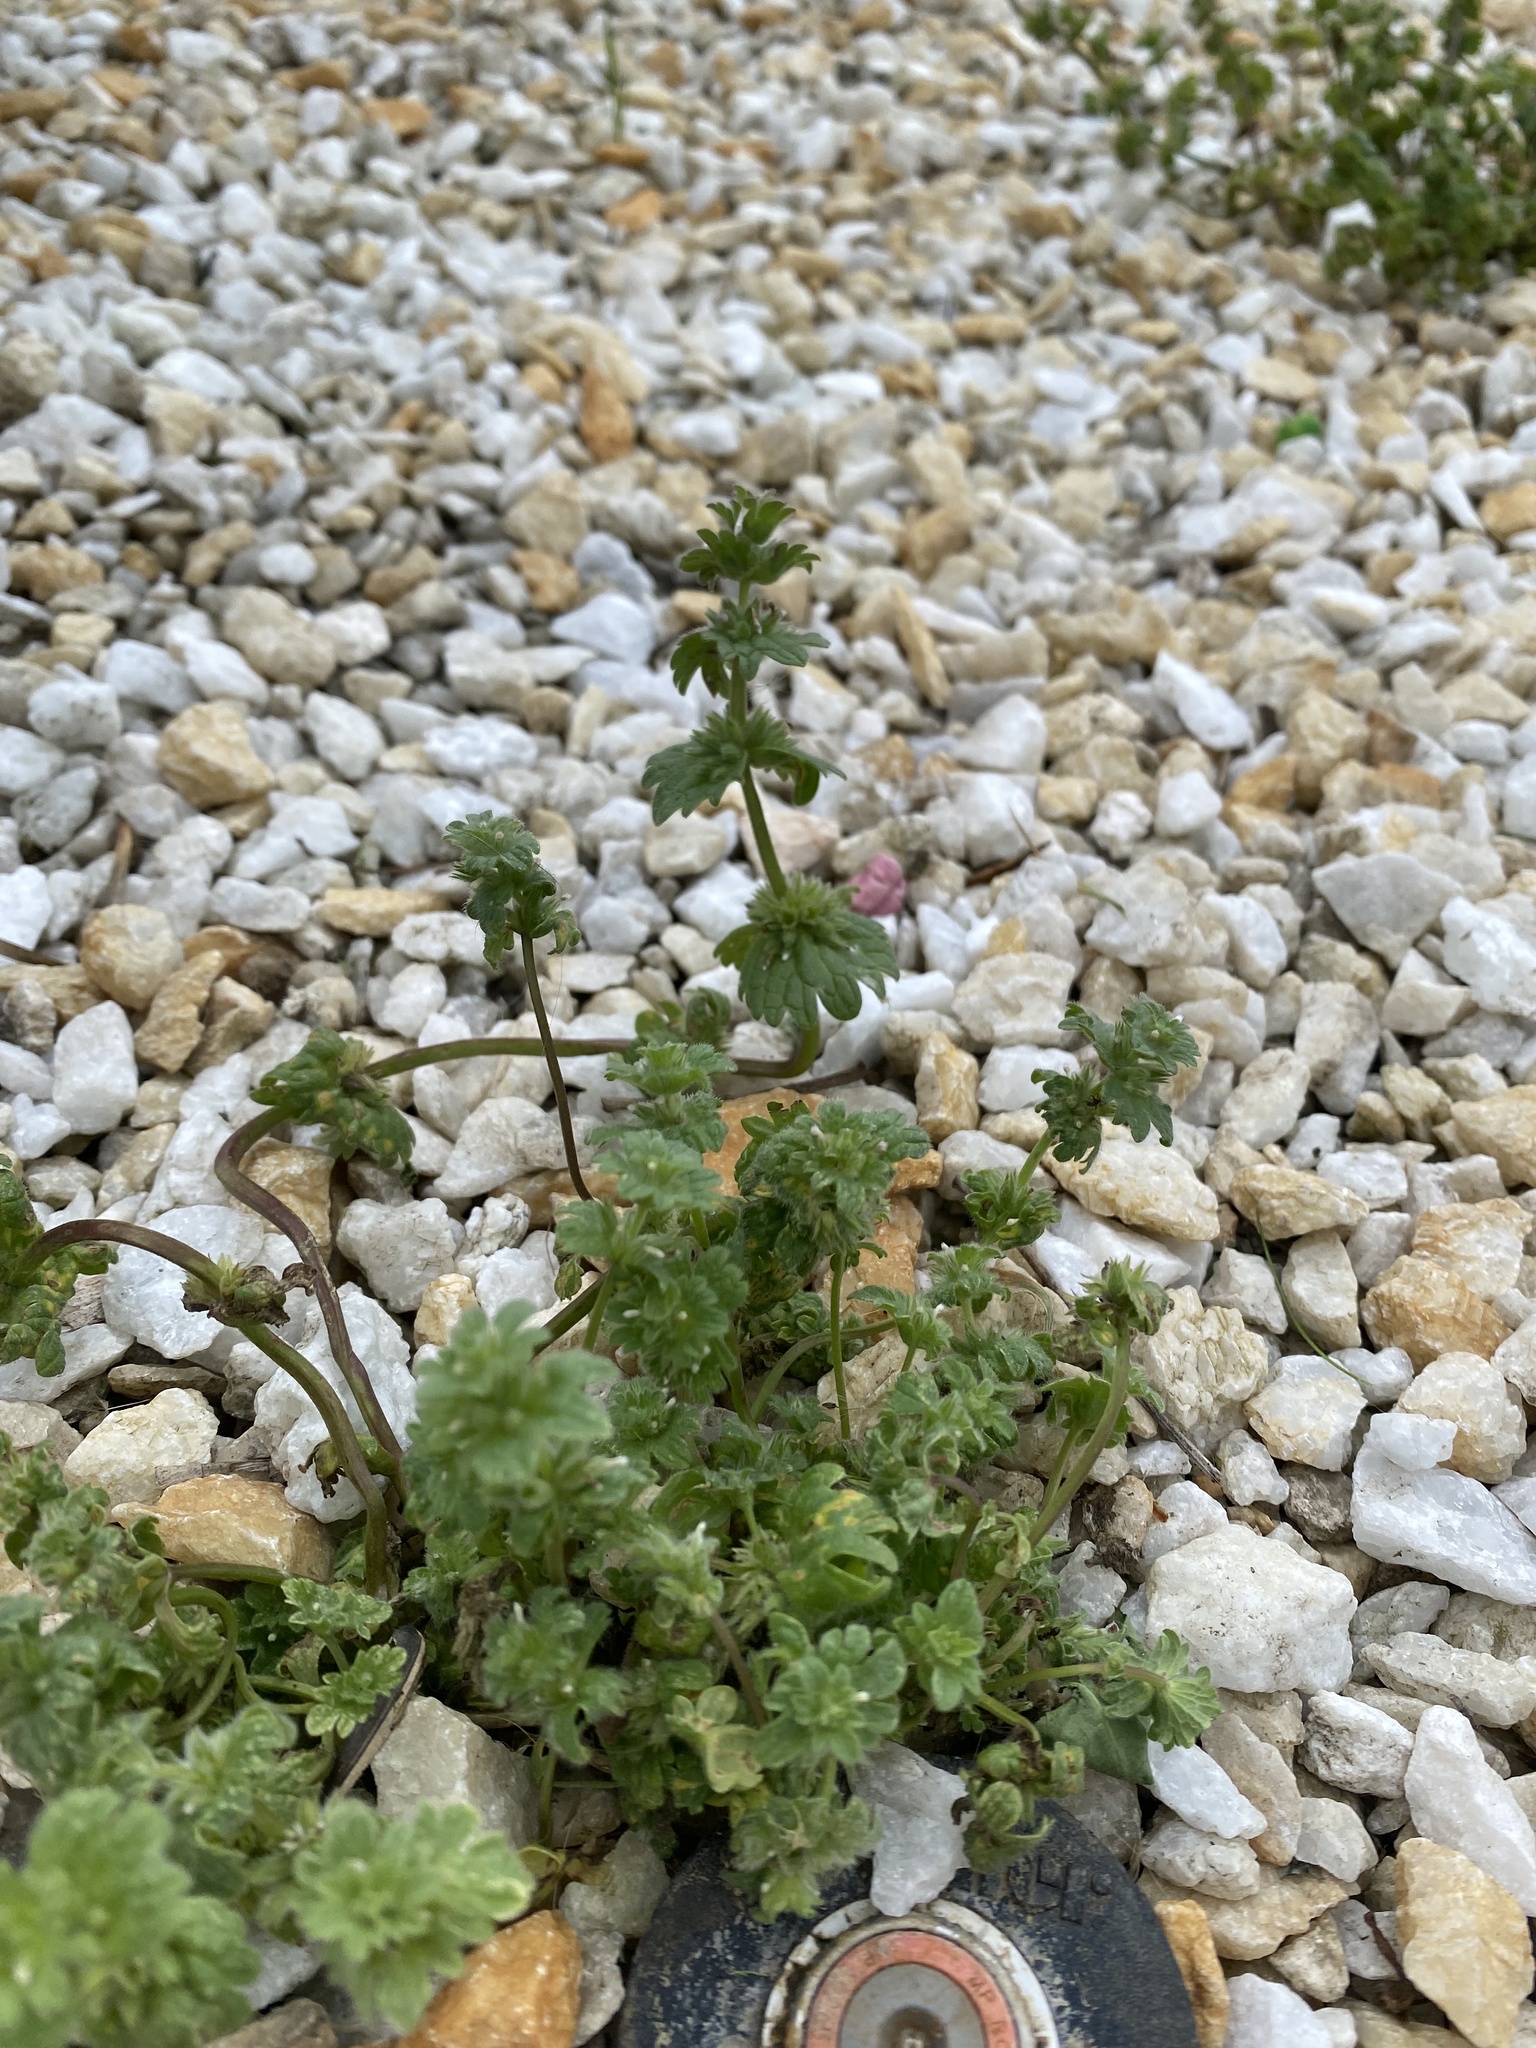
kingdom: Plantae
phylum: Tracheophyta
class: Magnoliopsida
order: Lamiales
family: Lamiaceae
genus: Lamium
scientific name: Lamium amplexicaule
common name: Henbit dead-nettle
